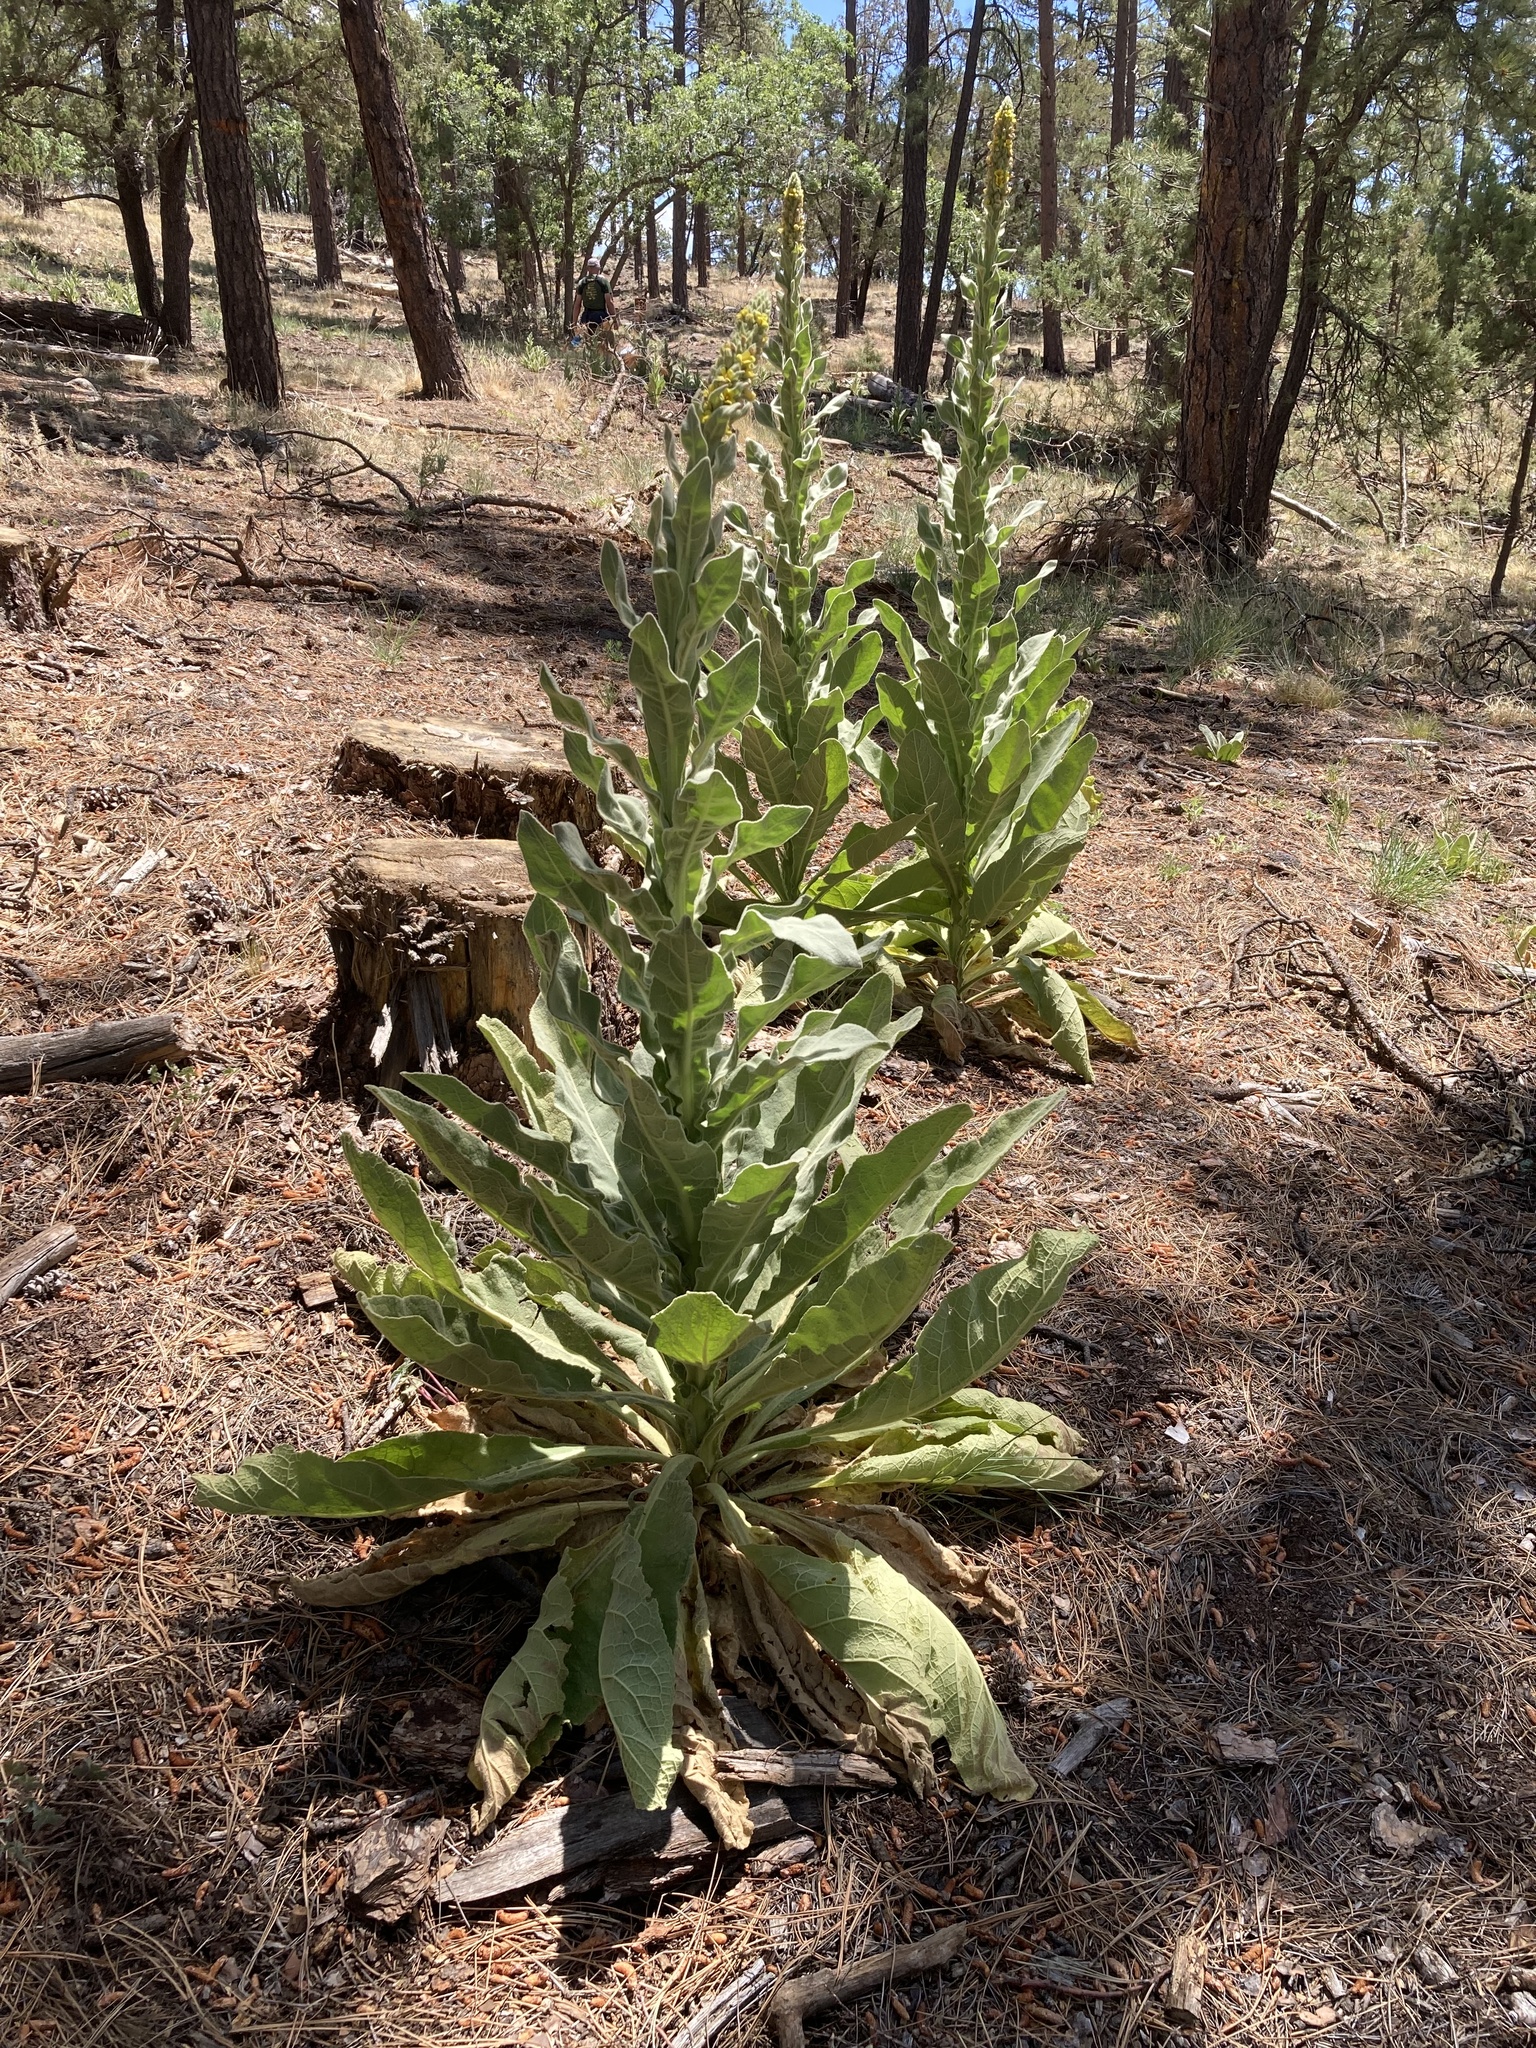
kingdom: Plantae
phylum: Tracheophyta
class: Magnoliopsida
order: Lamiales
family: Scrophulariaceae
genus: Verbascum
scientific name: Verbascum thapsus
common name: Common mullein
